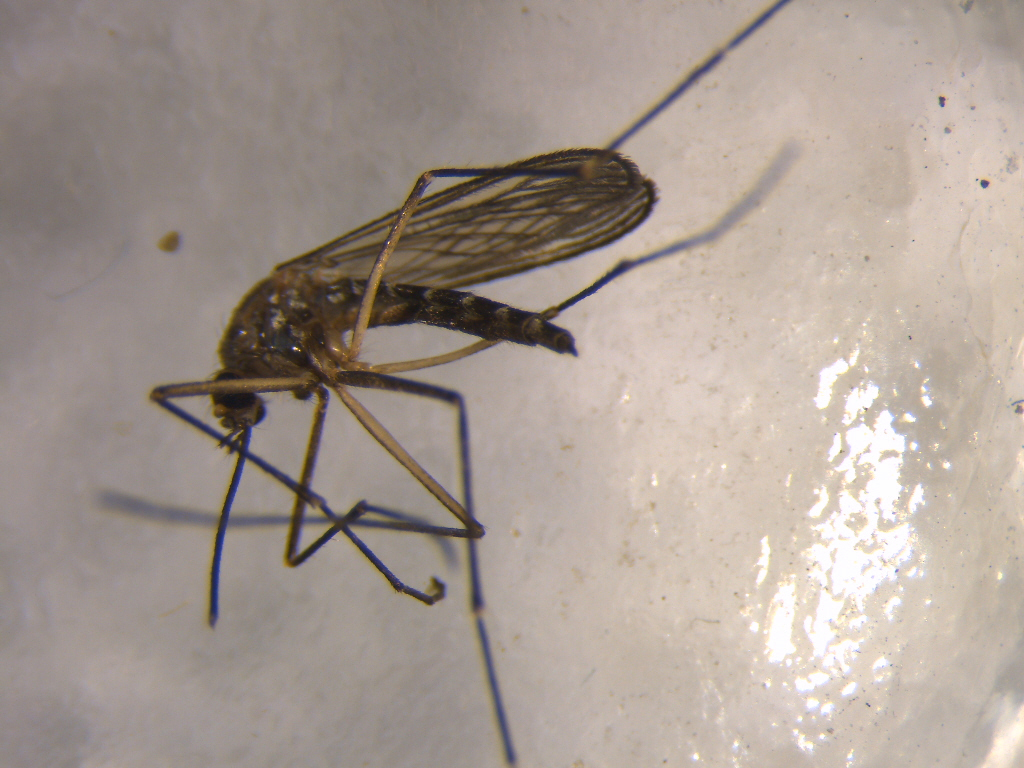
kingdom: Animalia
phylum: Arthropoda
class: Insecta
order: Diptera
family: Culicidae
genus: Aedes
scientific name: Aedes antipodeus
